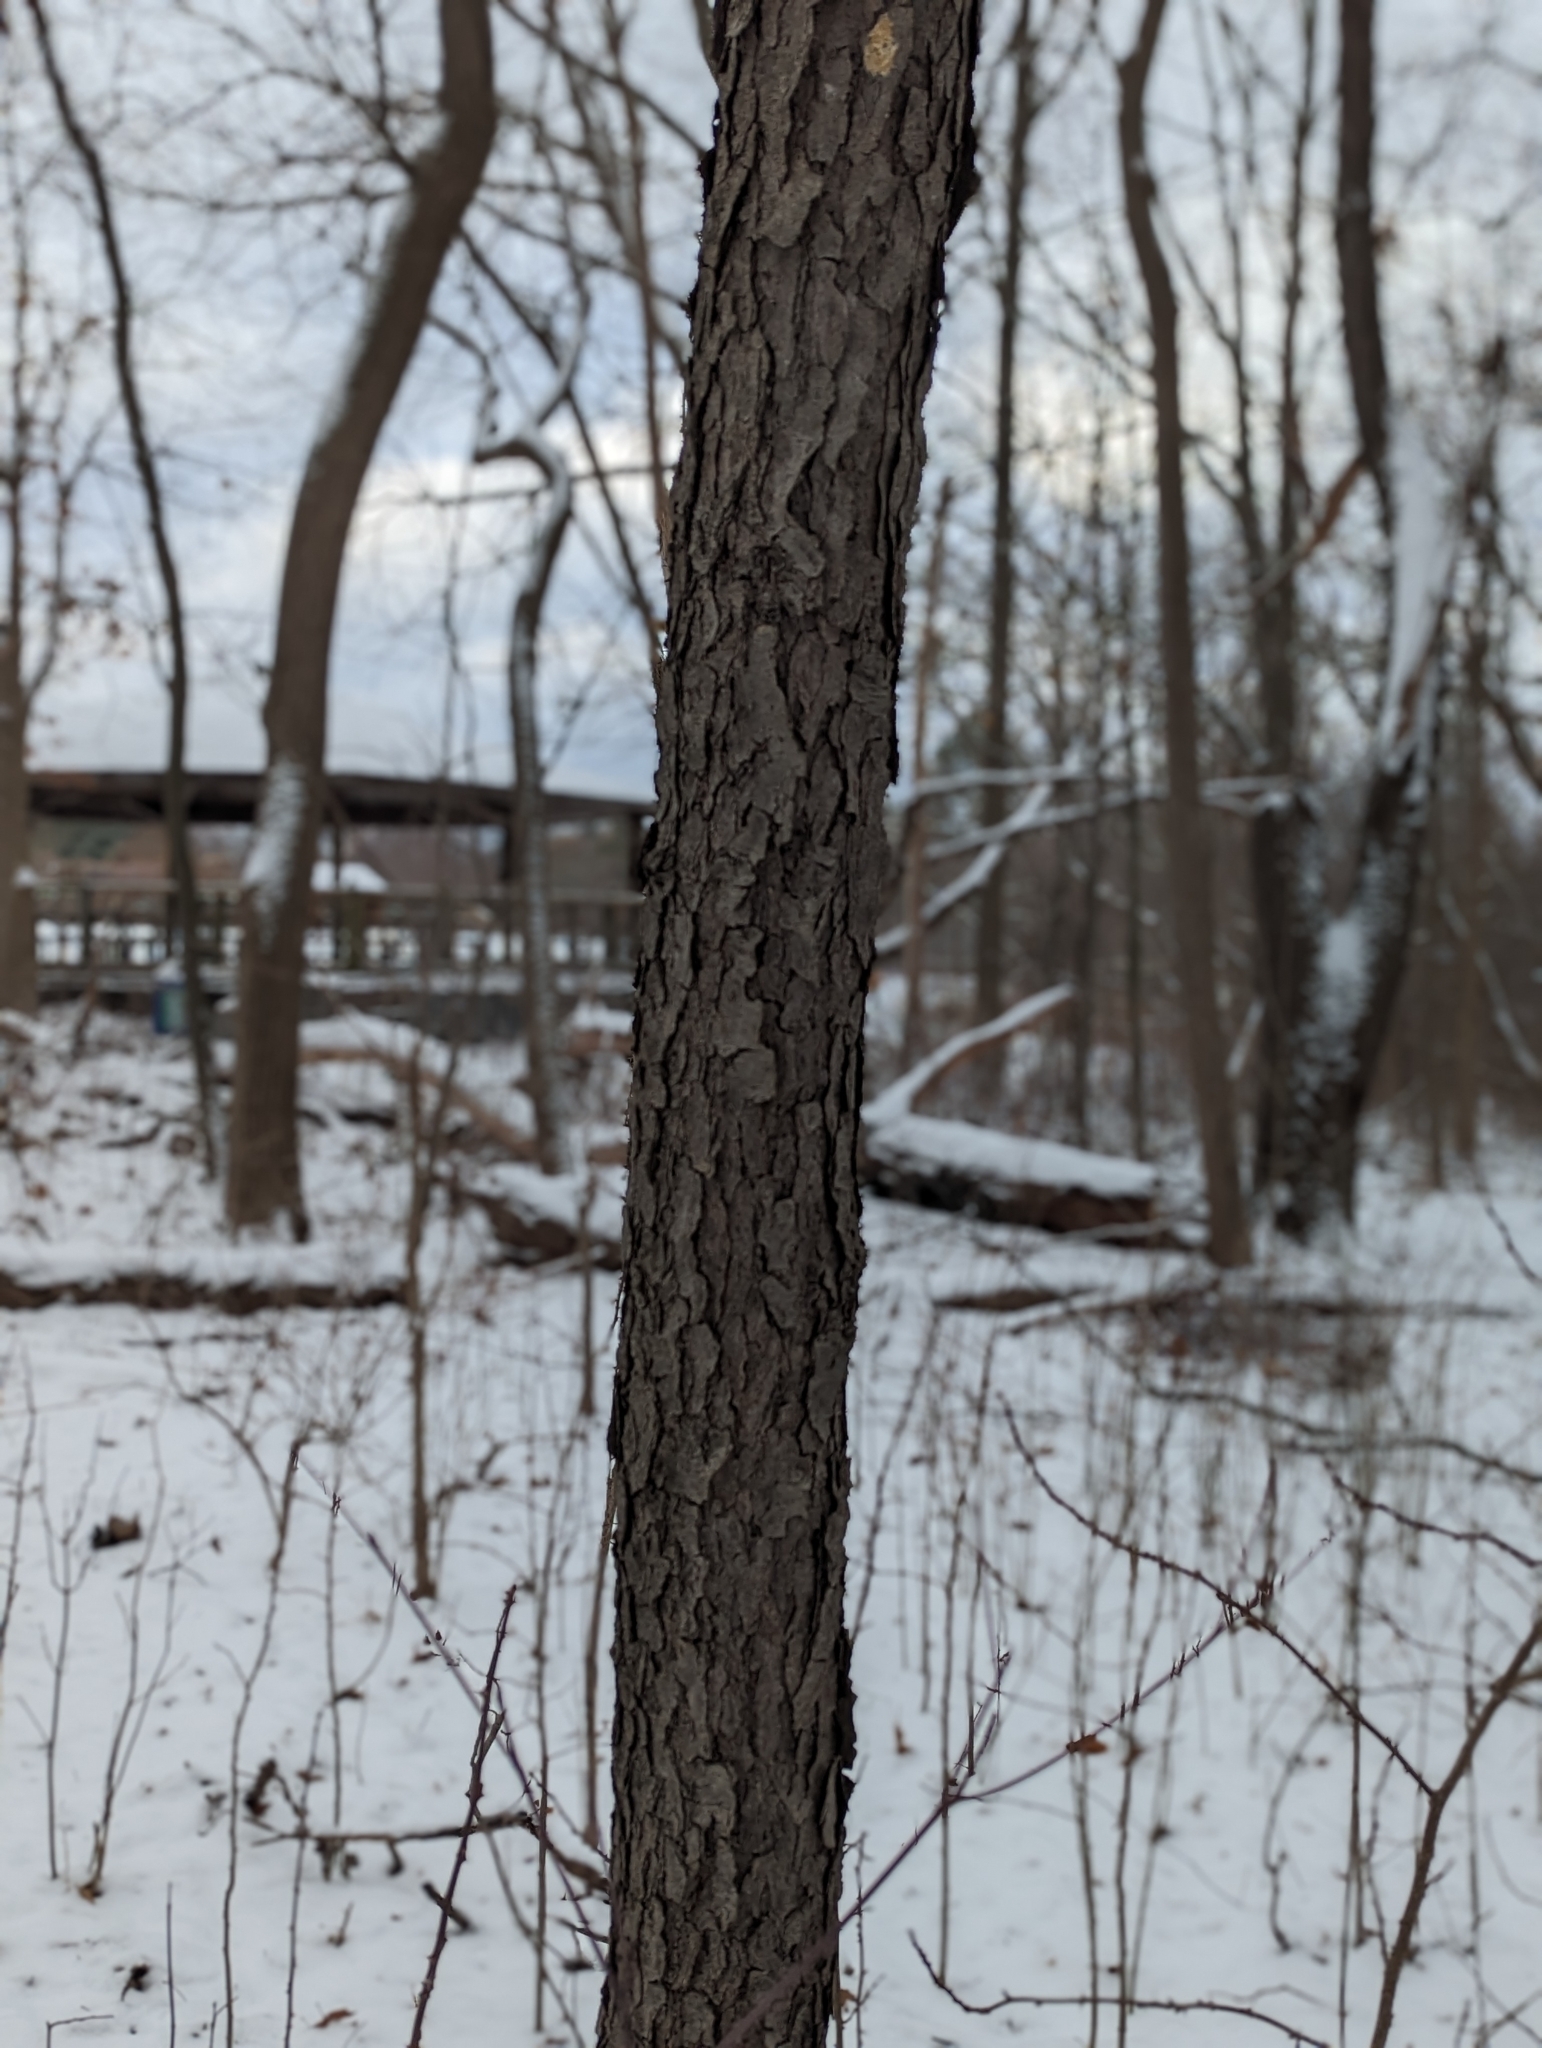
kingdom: Plantae
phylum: Tracheophyta
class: Magnoliopsida
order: Rosales
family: Rosaceae
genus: Prunus
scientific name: Prunus serotina
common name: Black cherry
